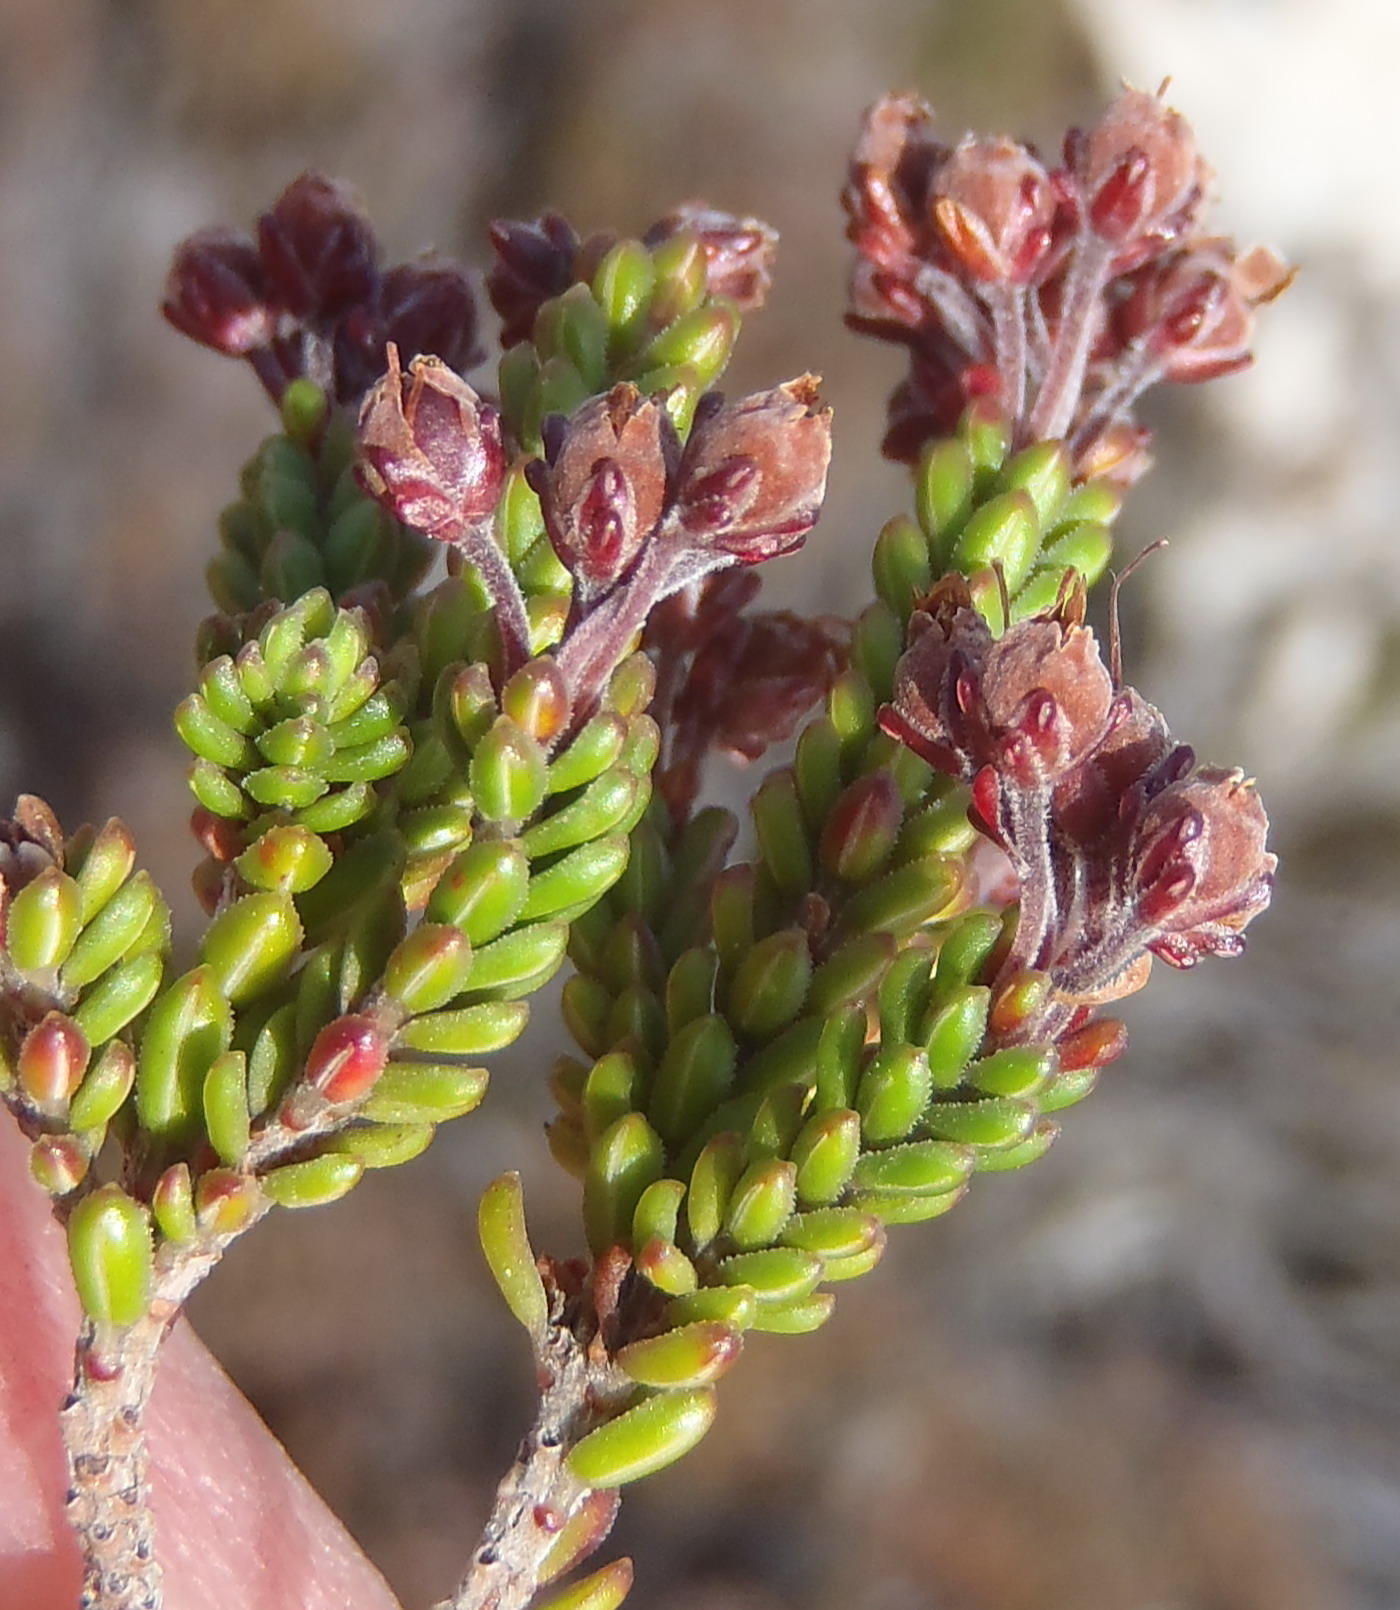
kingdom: Plantae
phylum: Tracheophyta
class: Magnoliopsida
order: Ericales
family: Ericaceae
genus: Erica
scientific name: Erica petraea
